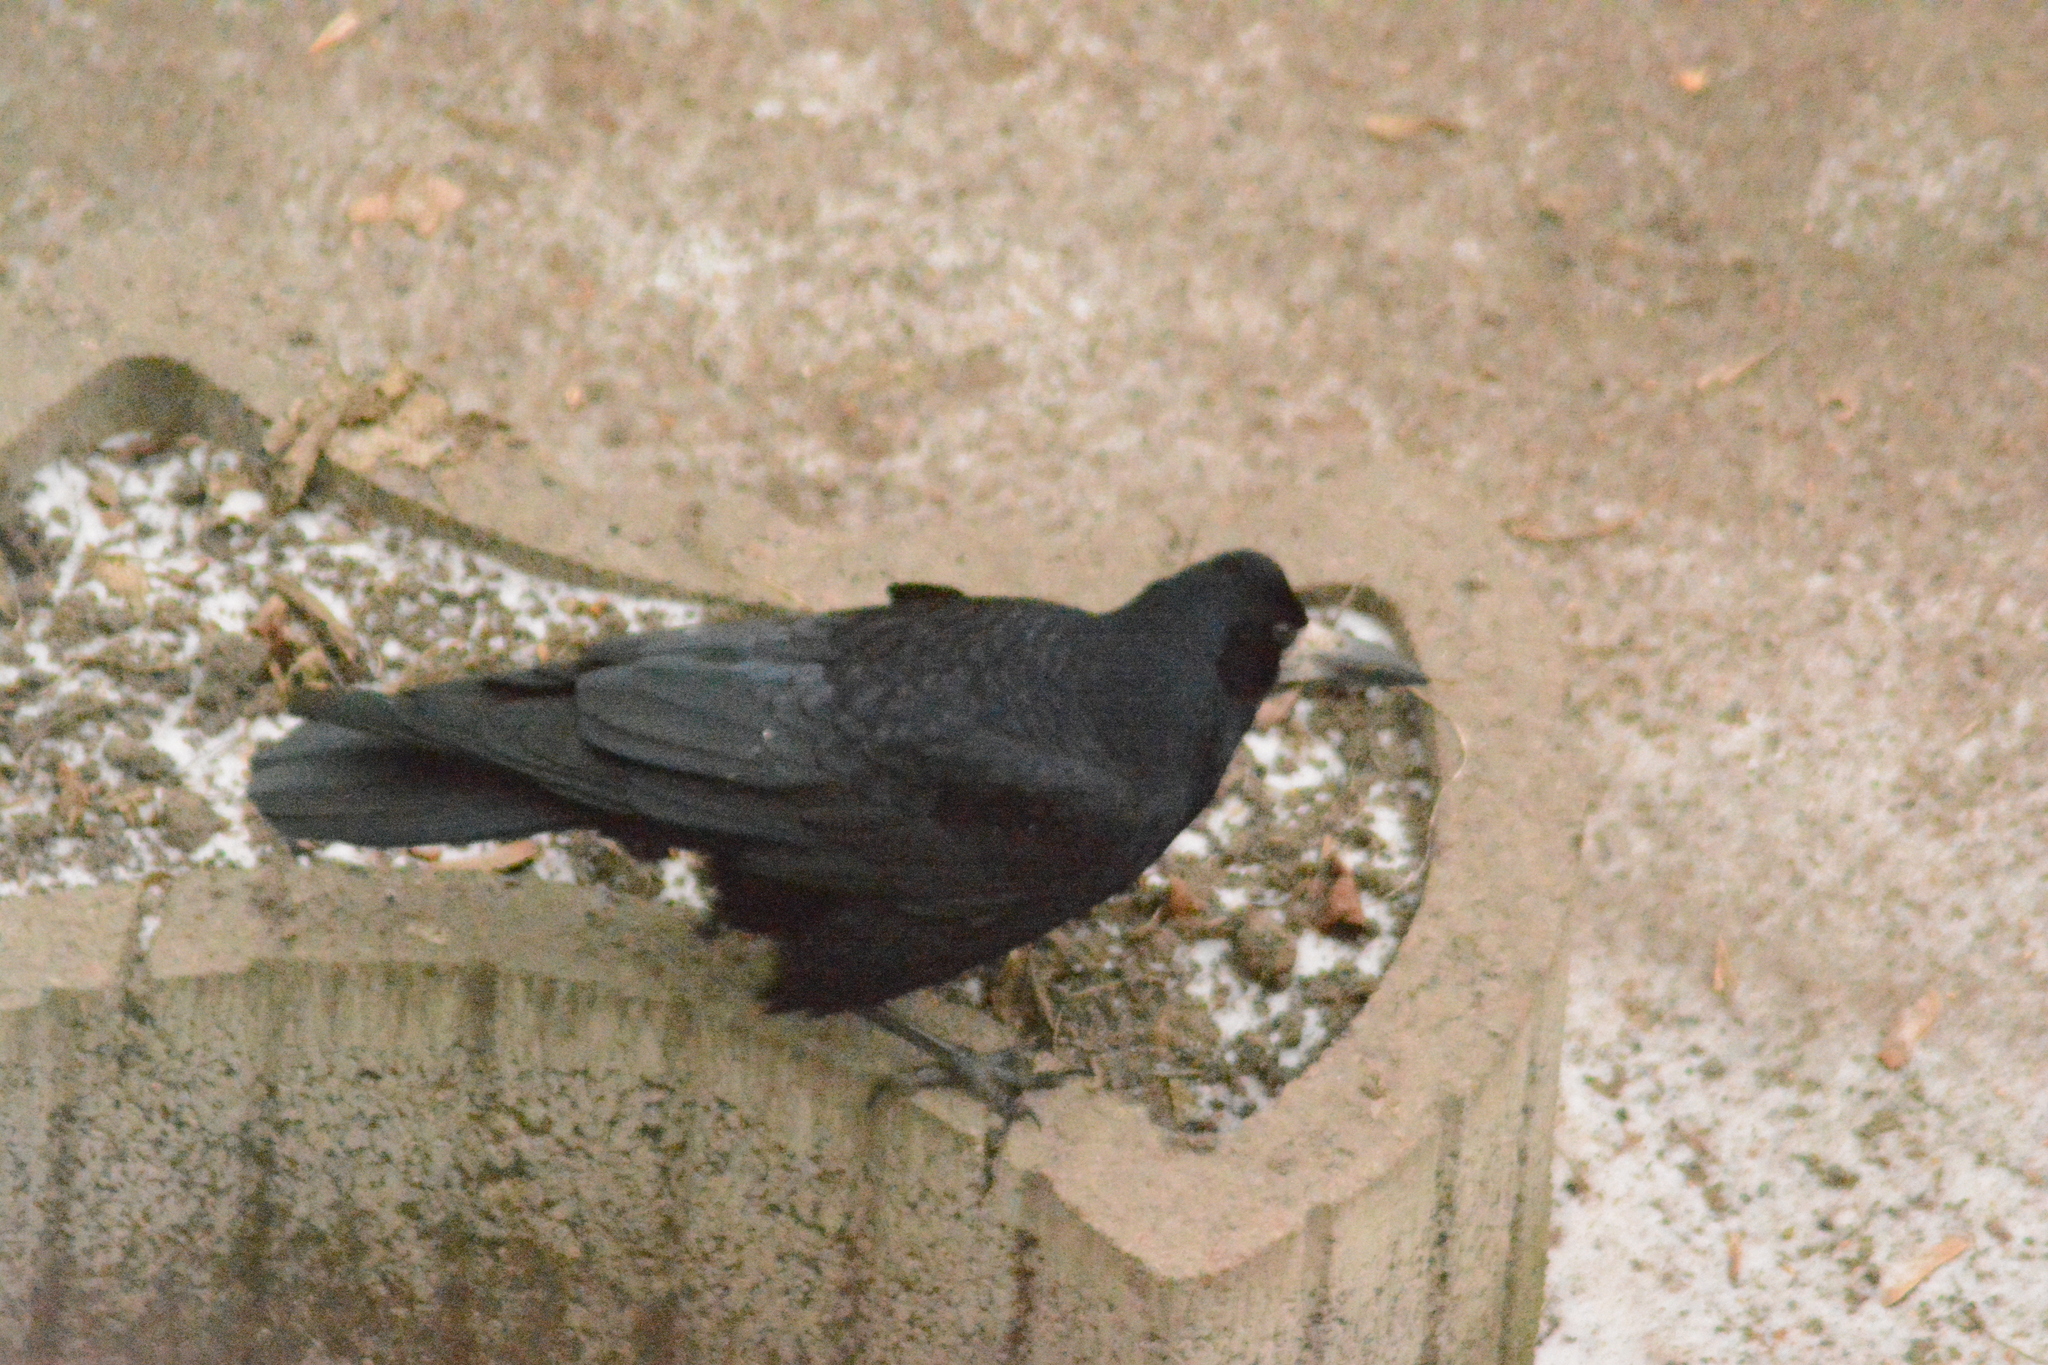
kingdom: Animalia
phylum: Chordata
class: Aves
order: Passeriformes
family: Corvidae
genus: Corvus
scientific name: Corvus frugilegus
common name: Rook
